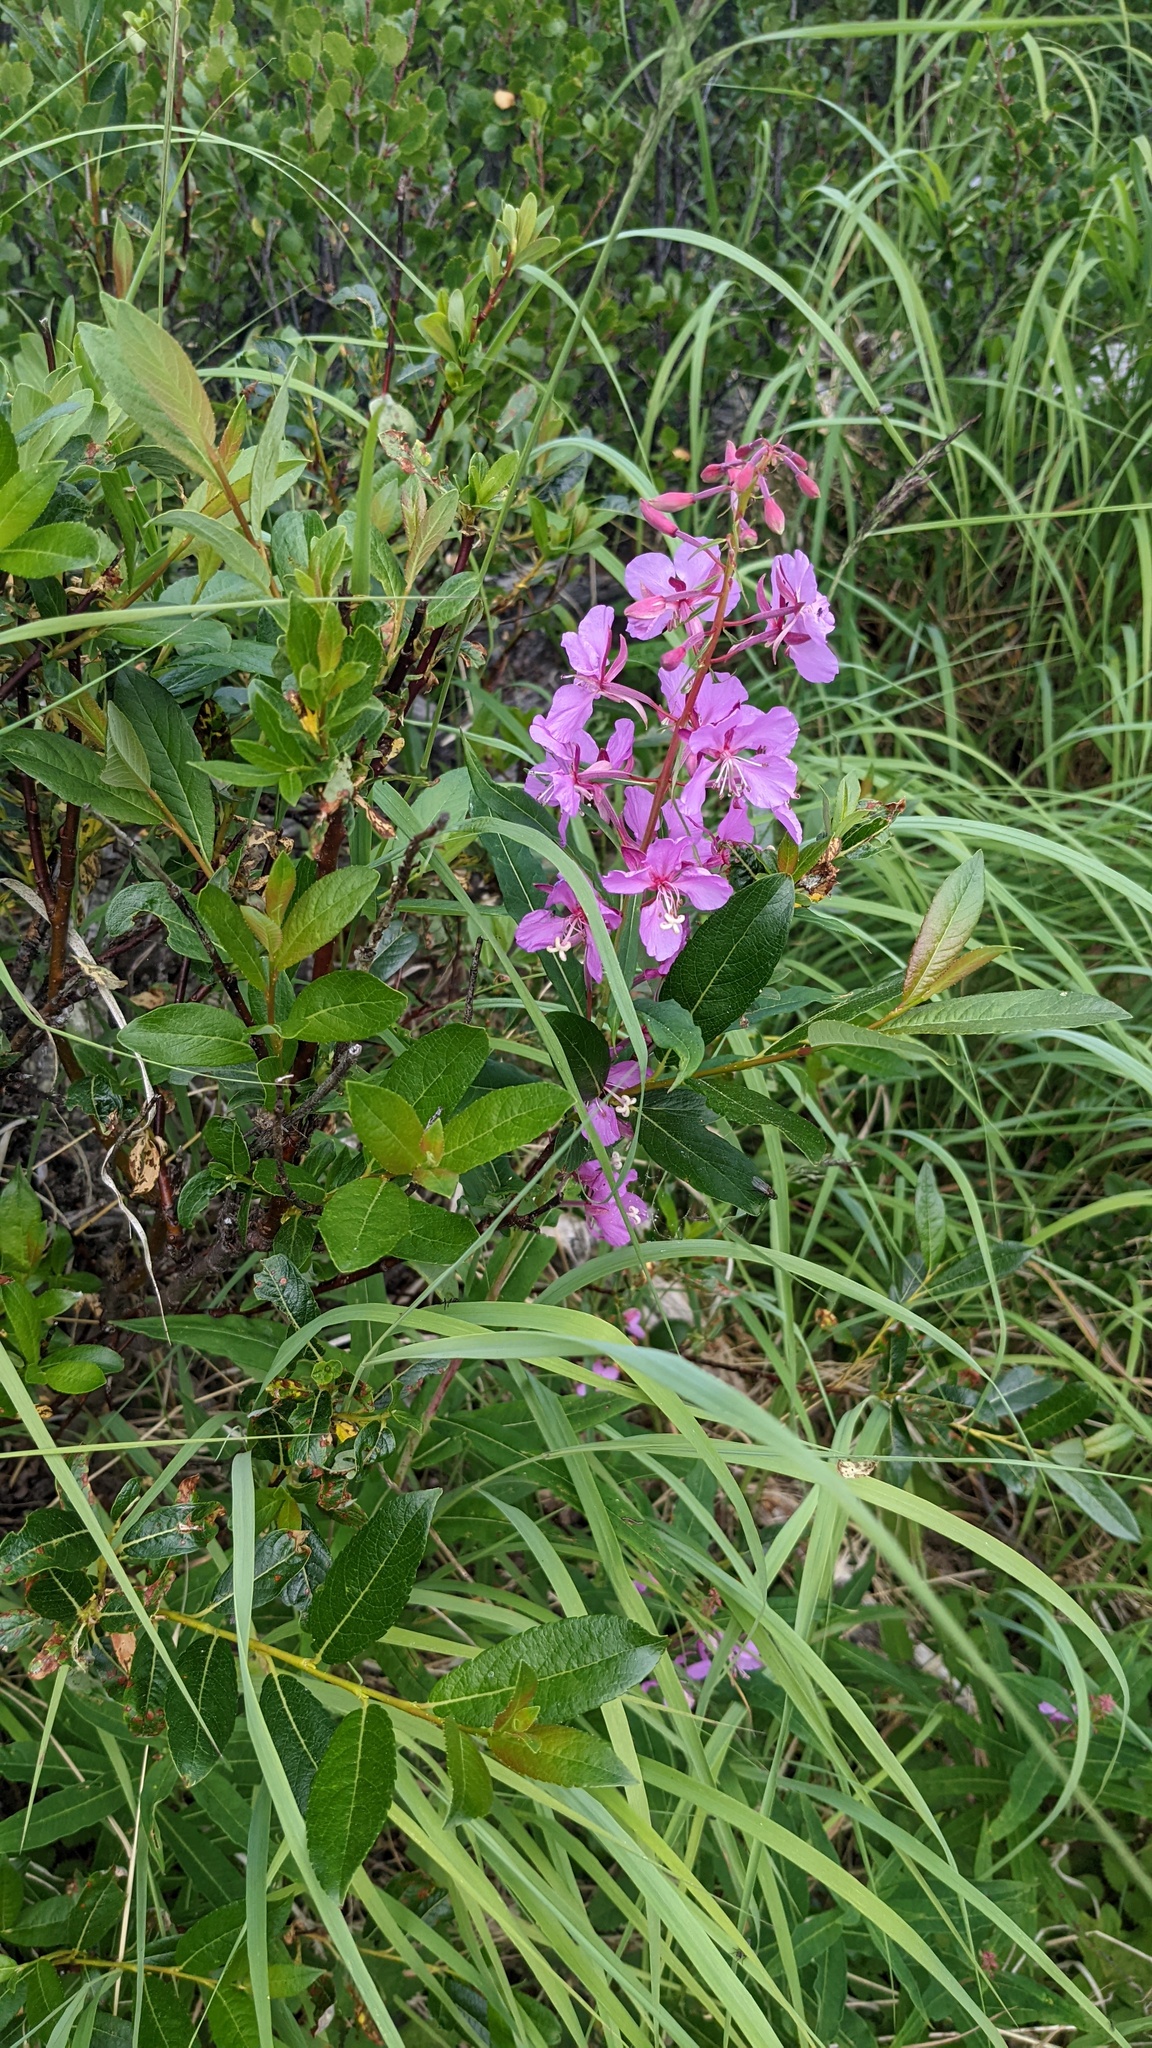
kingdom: Plantae
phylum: Tracheophyta
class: Magnoliopsida
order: Myrtales
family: Onagraceae
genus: Chamaenerion
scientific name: Chamaenerion angustifolium
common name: Fireweed
